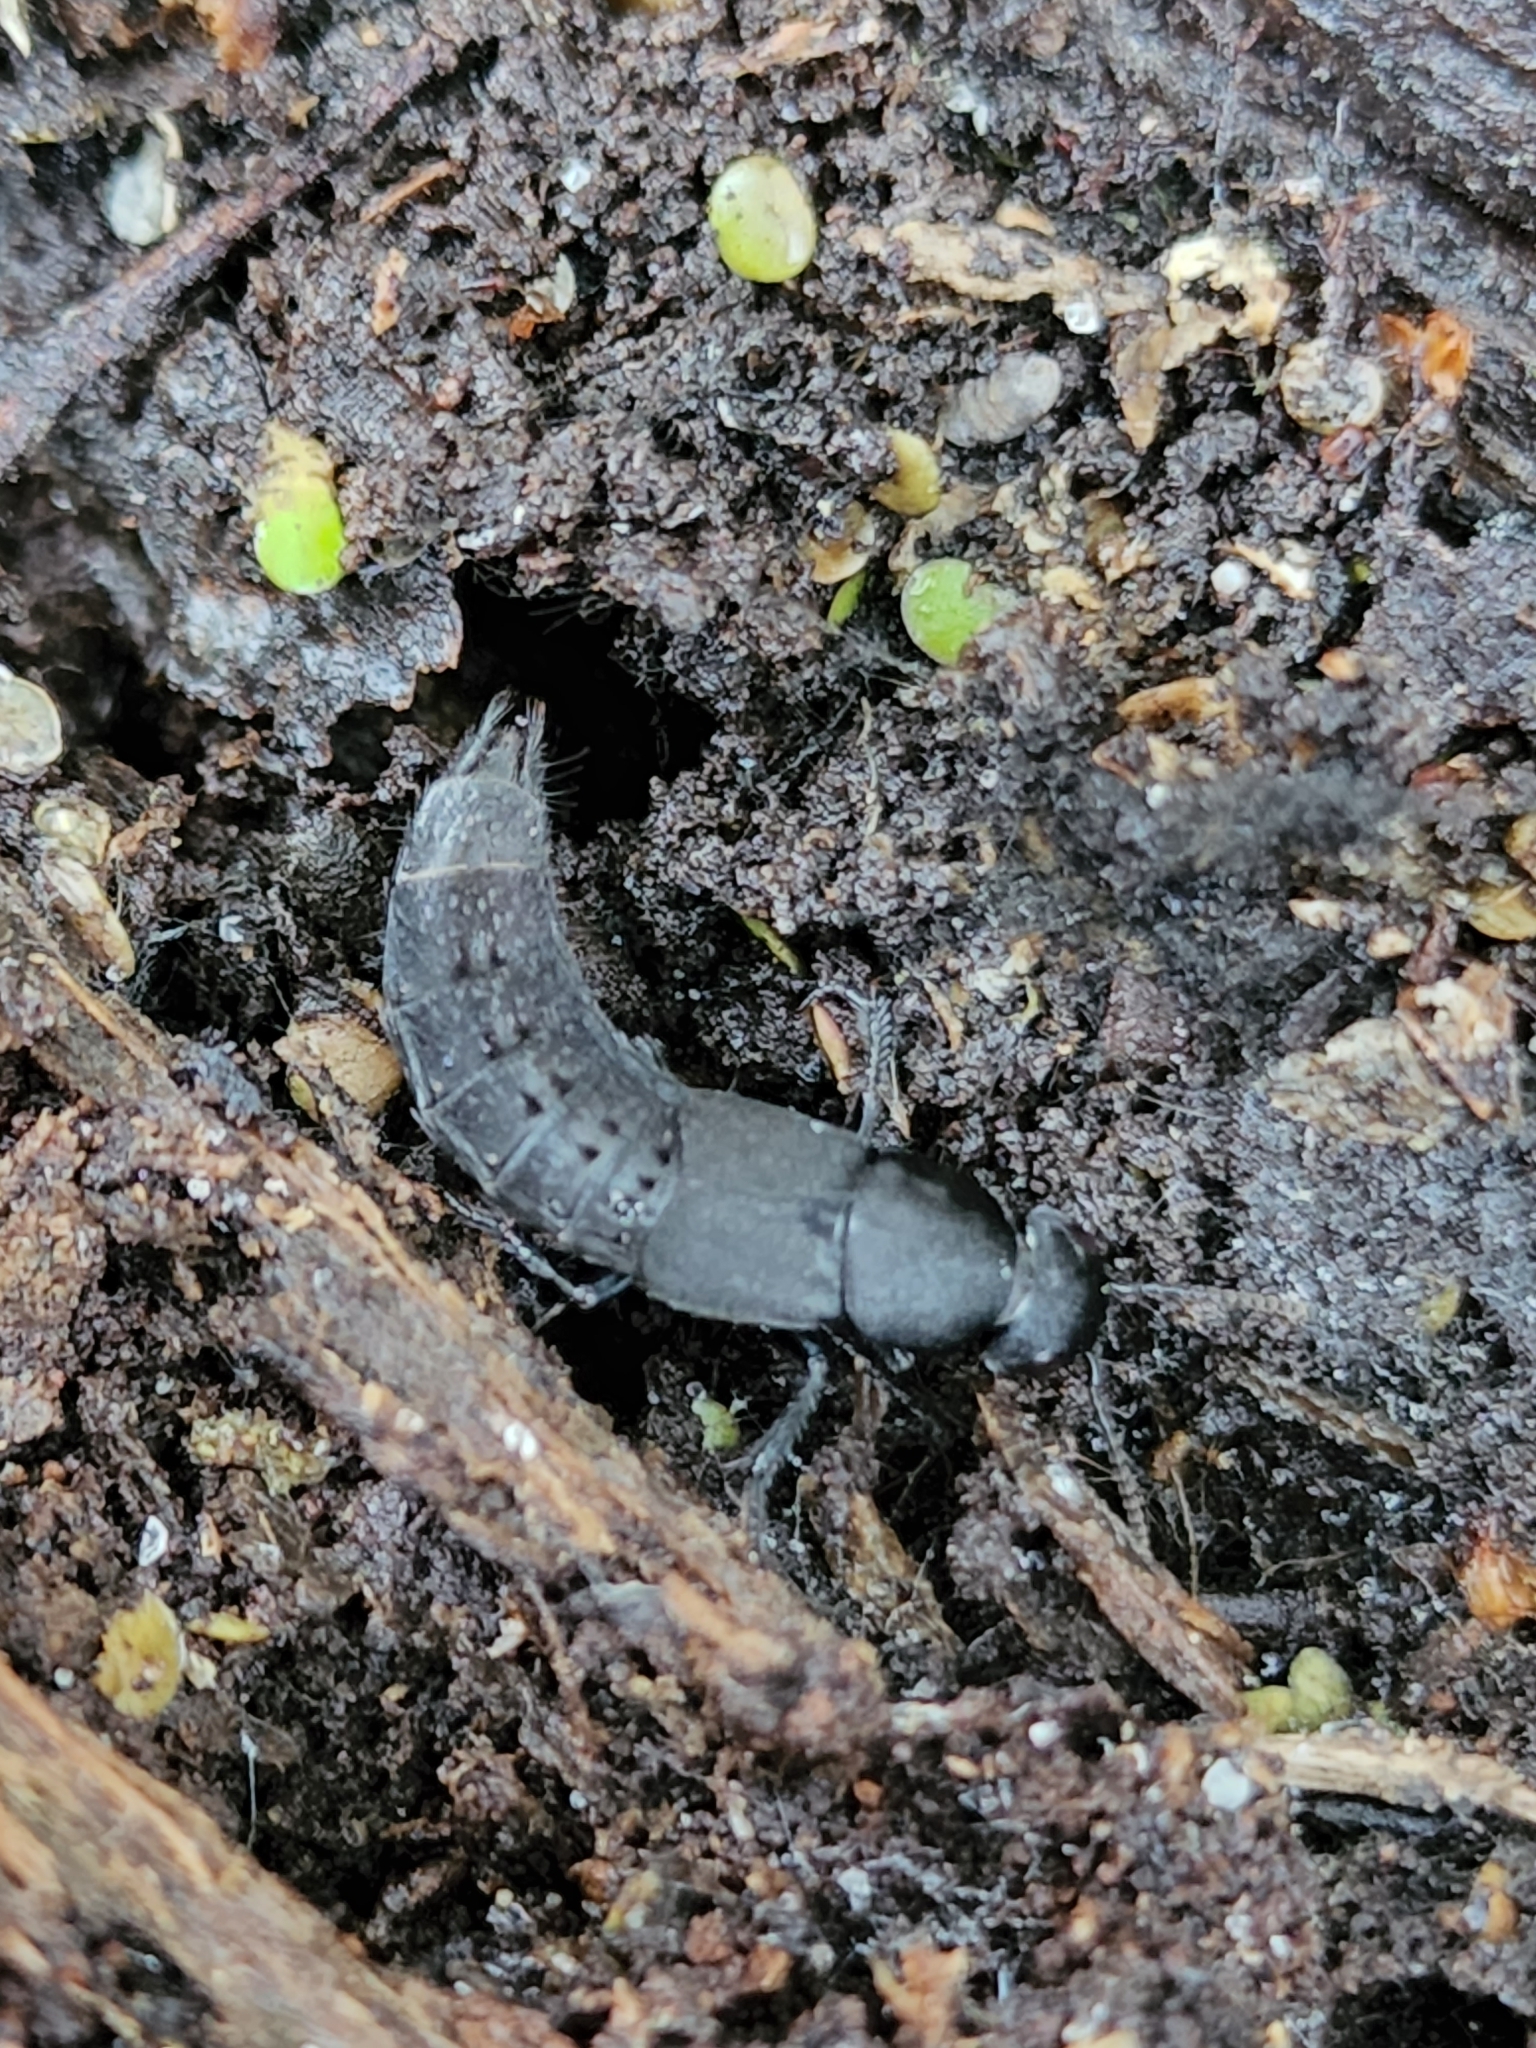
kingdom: Animalia
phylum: Arthropoda
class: Insecta
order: Coleoptera
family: Staphylinidae
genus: Platydracus
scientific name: Platydracus tomentosus
